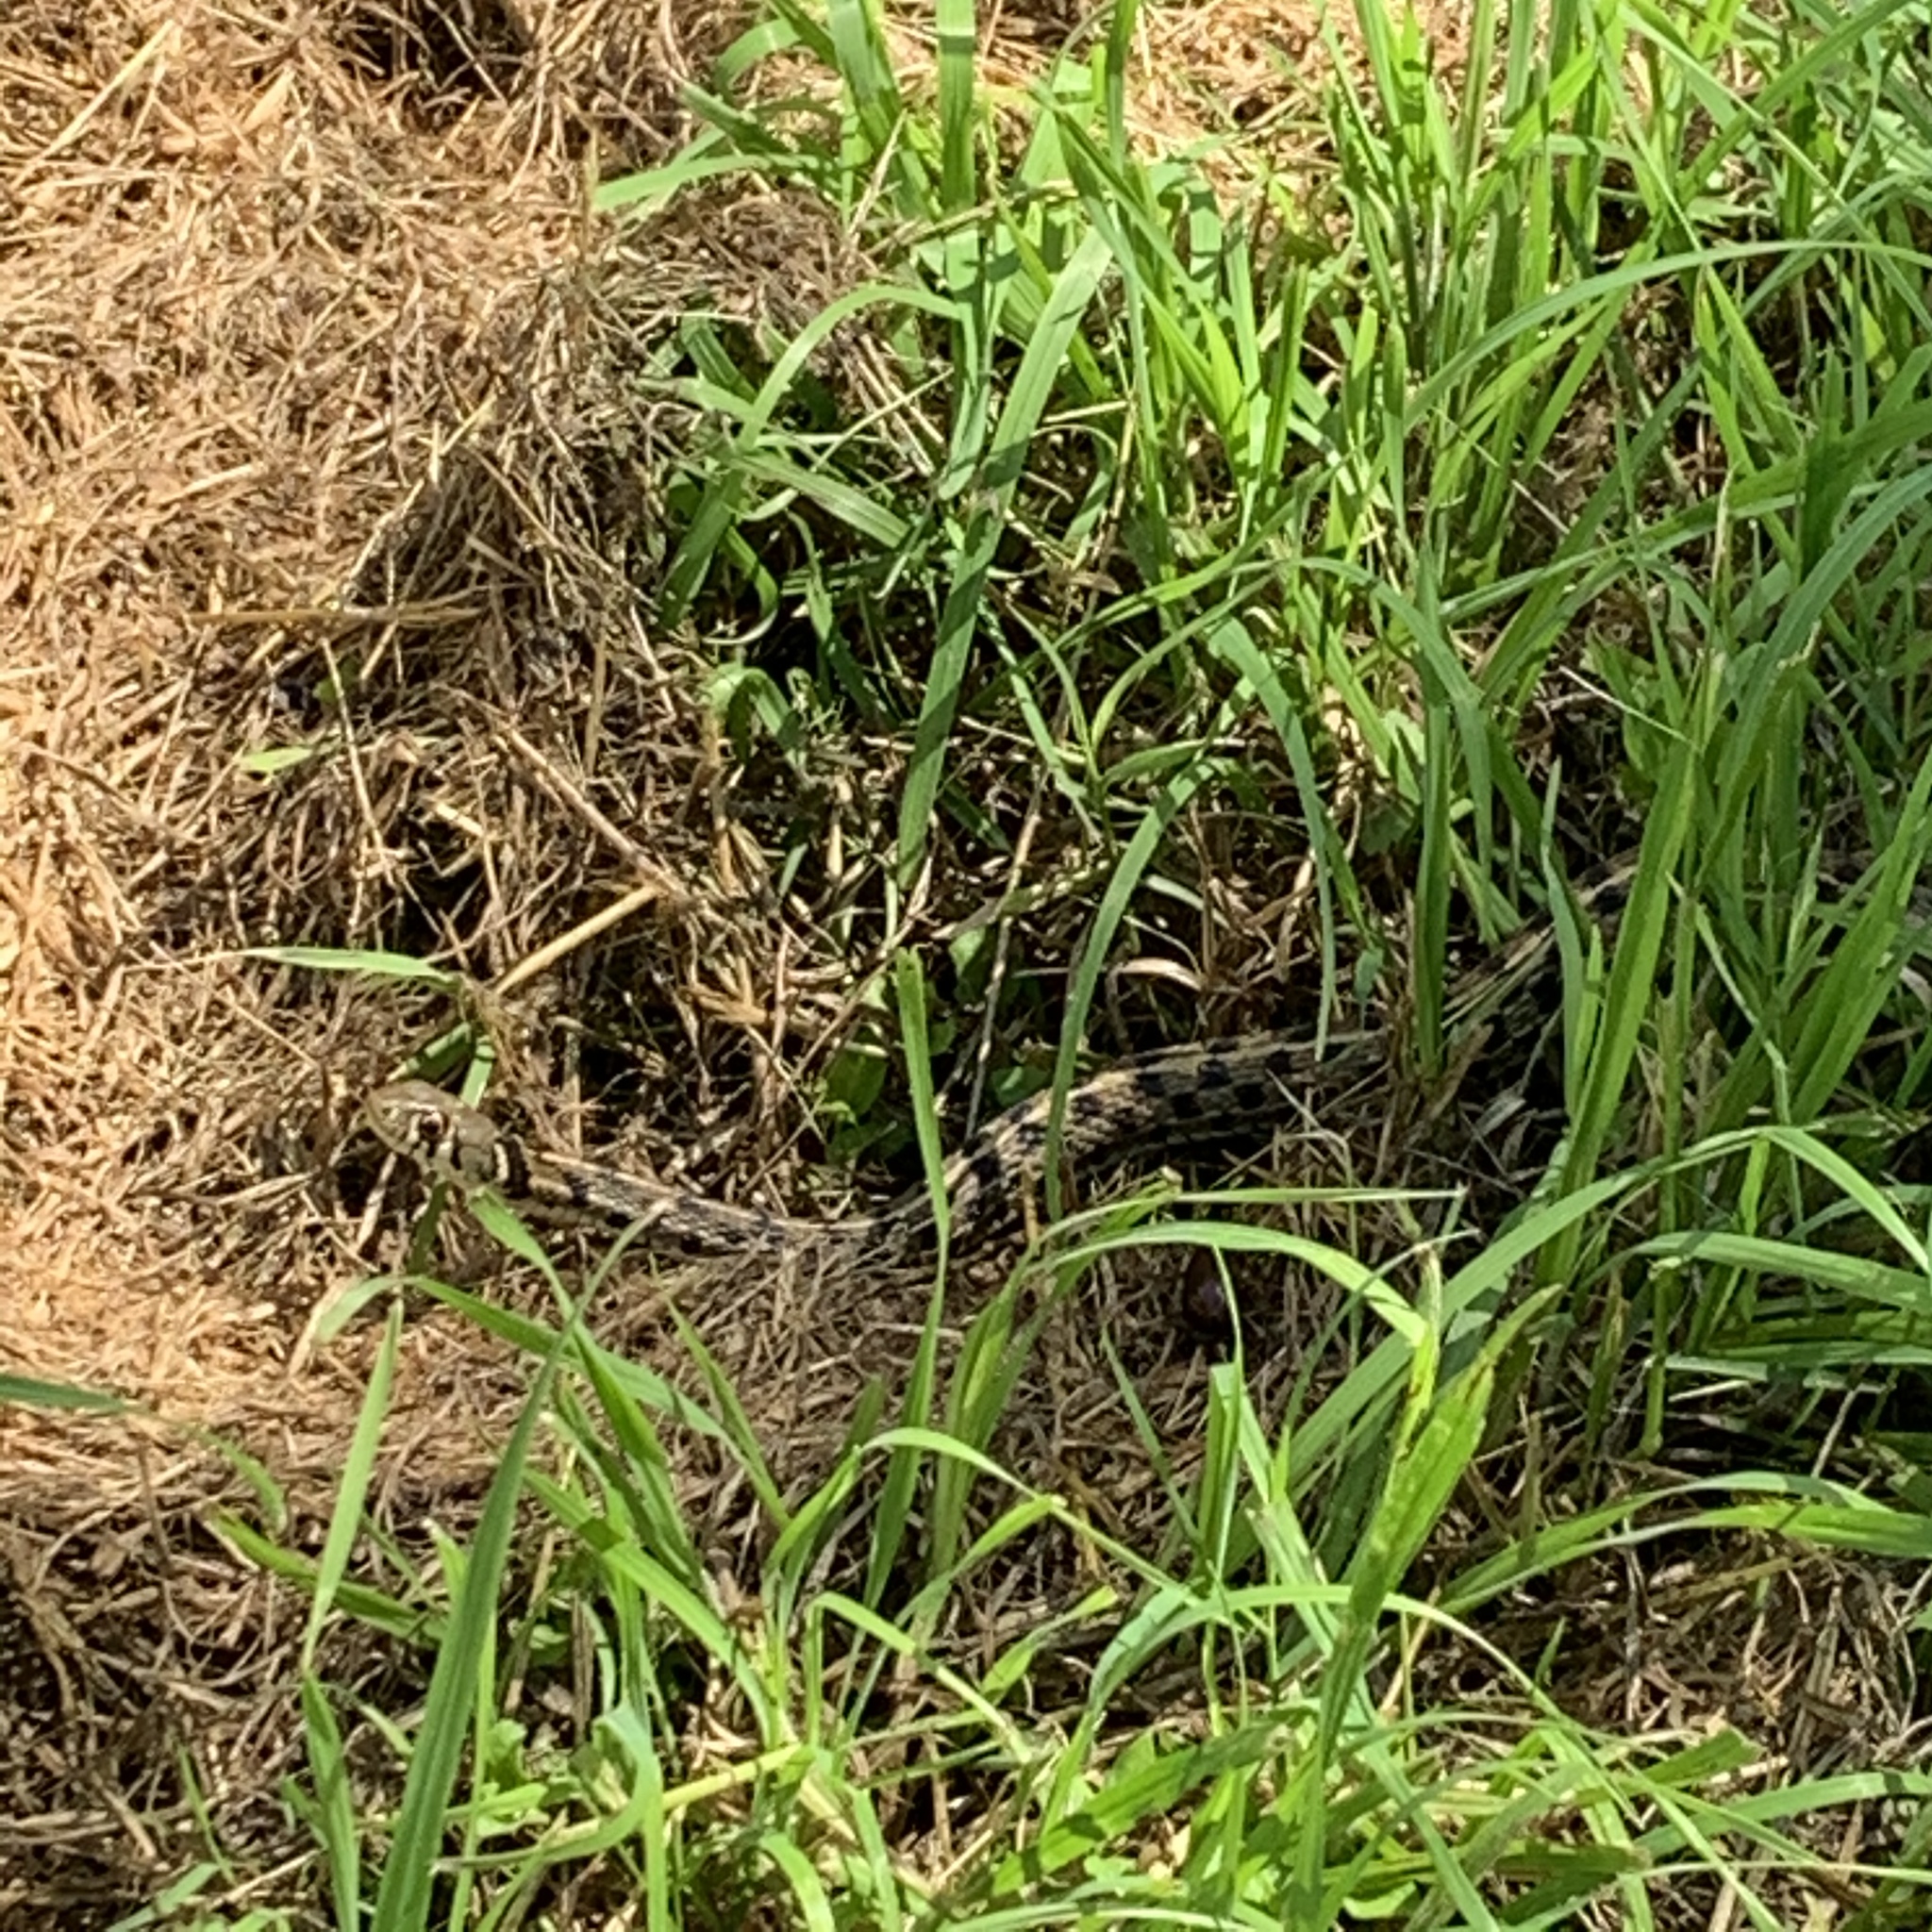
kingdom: Animalia
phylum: Chordata
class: Squamata
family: Colubridae
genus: Thamnophis
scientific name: Thamnophis marcianus
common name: Checkered garter snake
